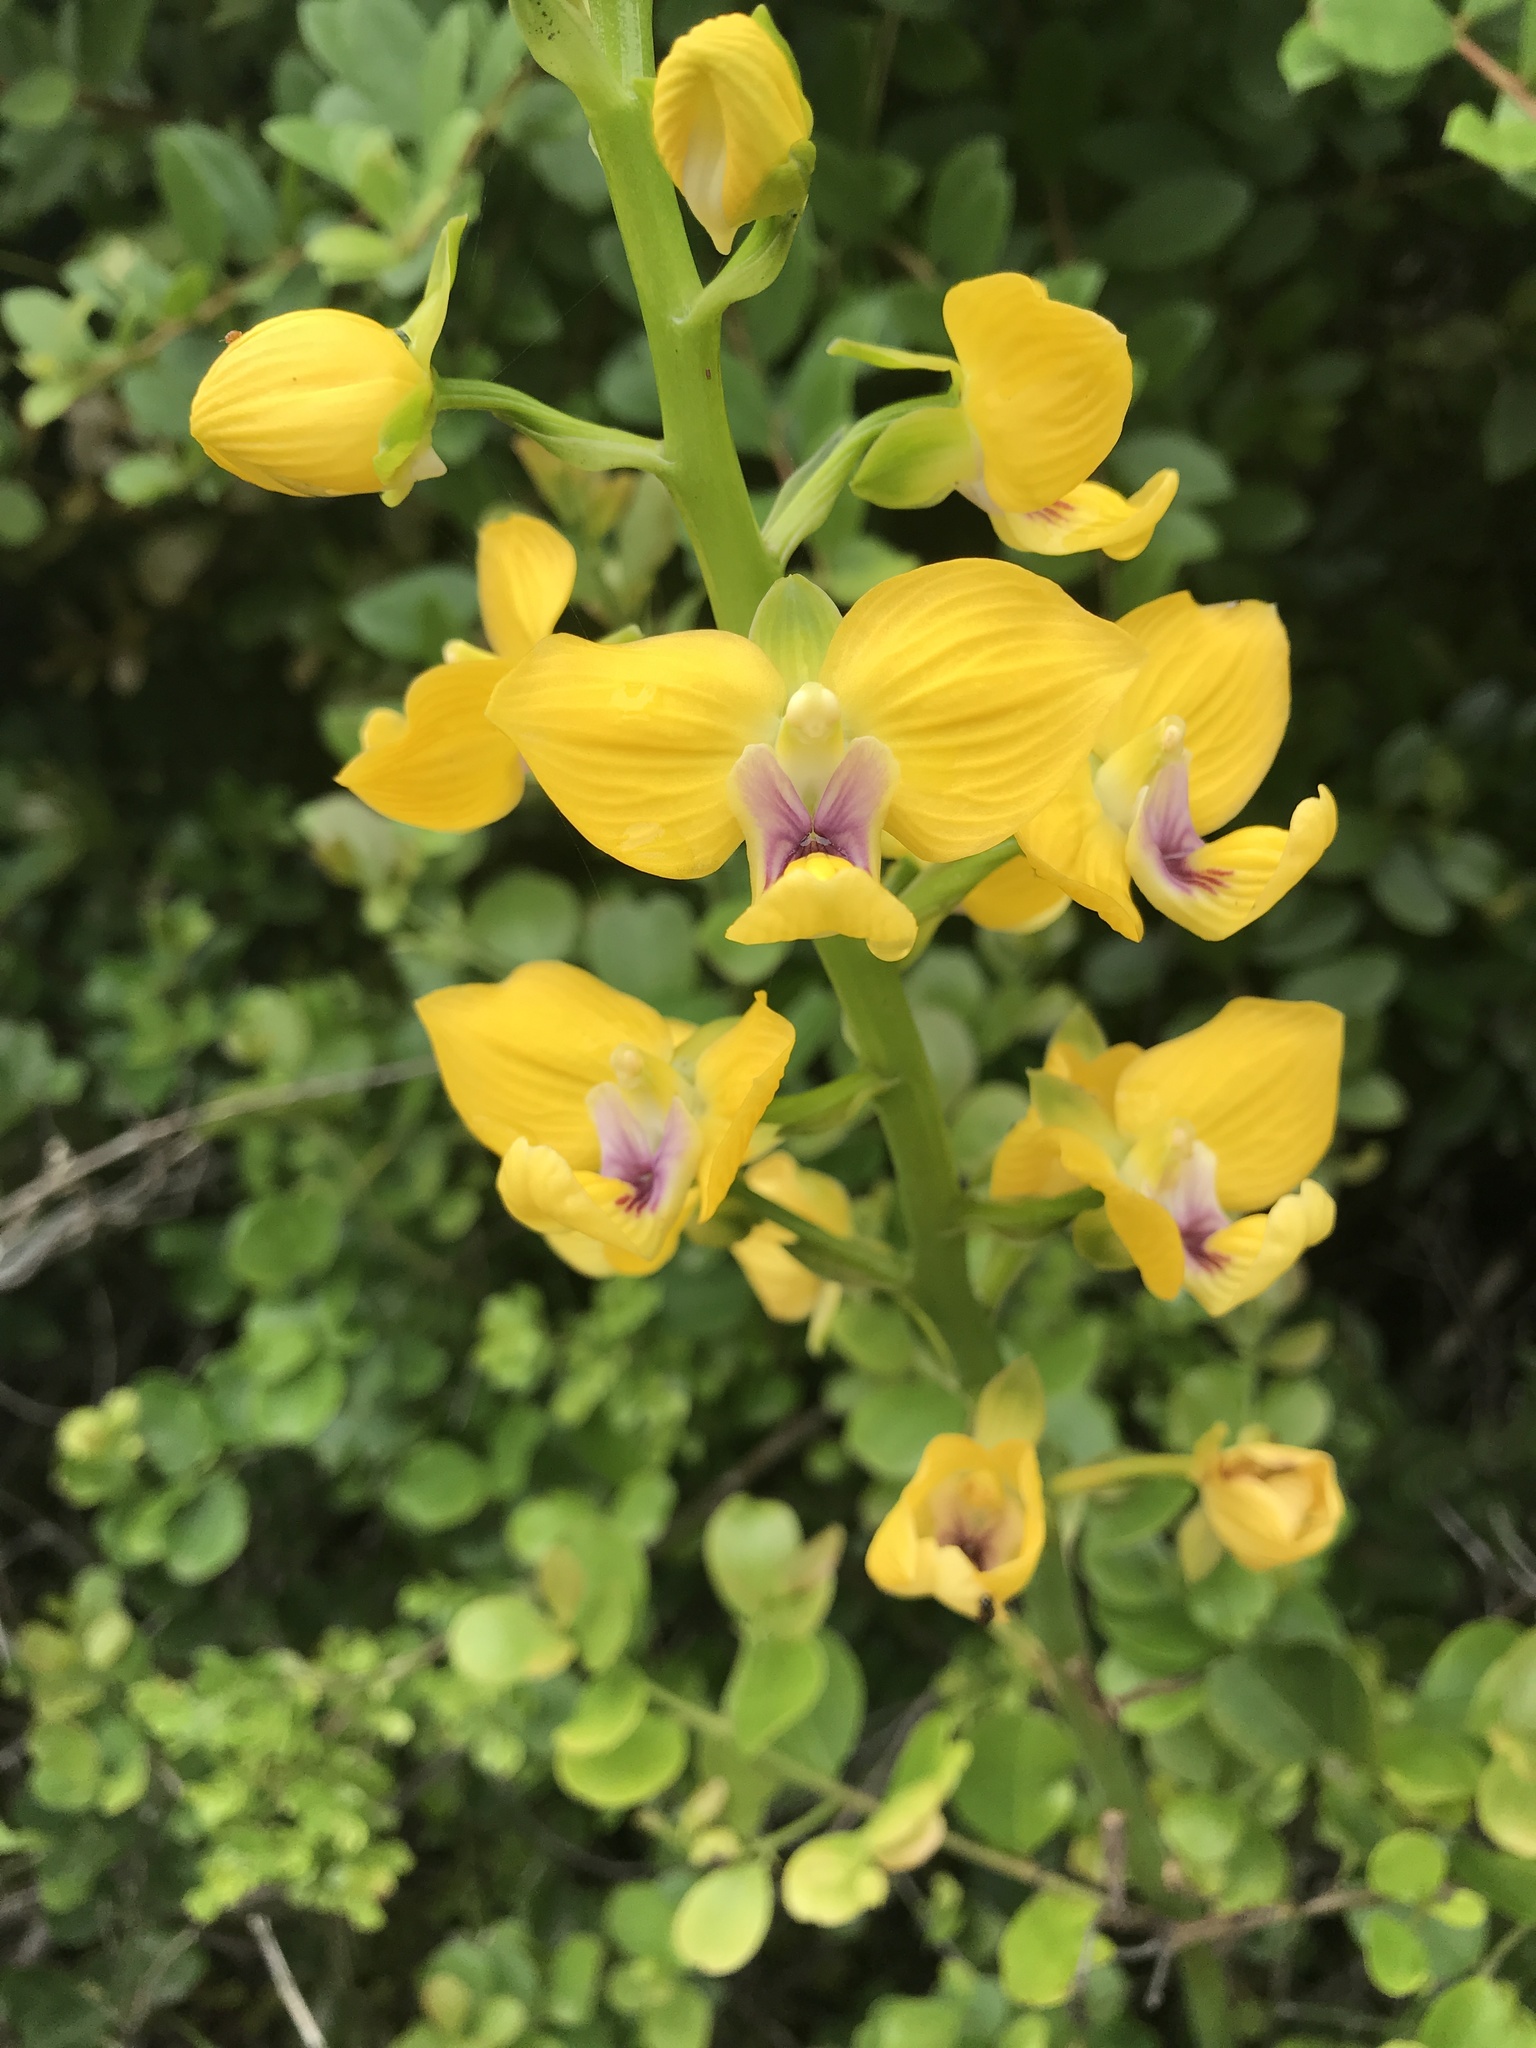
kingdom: Plantae
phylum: Tracheophyta
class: Liliopsida
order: Asparagales
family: Orchidaceae
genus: Eulophia
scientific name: Eulophia speciosa
